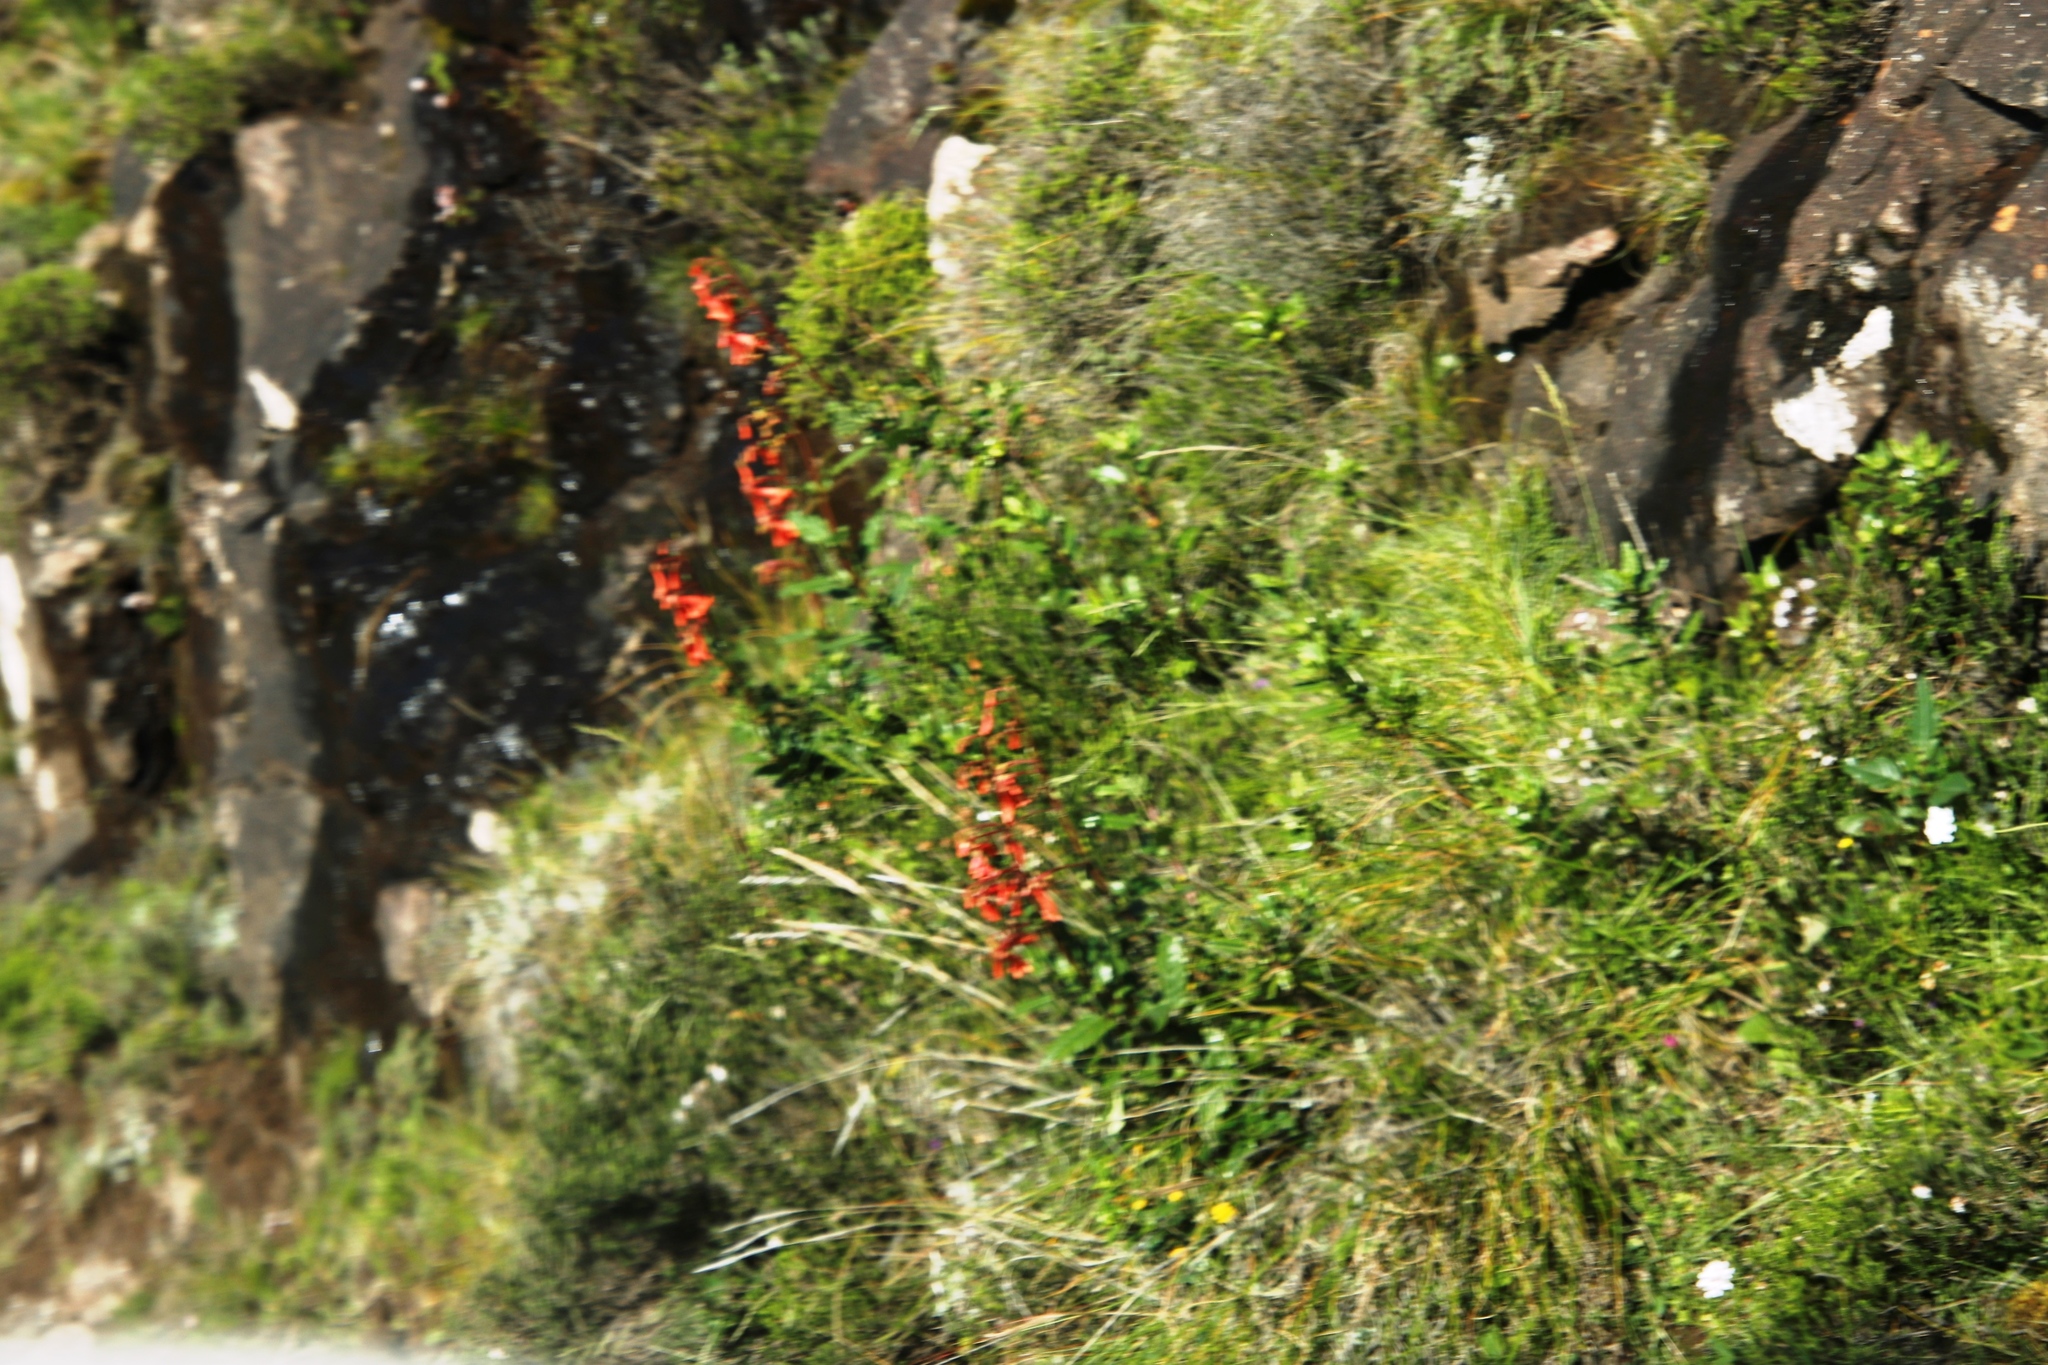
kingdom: Plantae
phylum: Tracheophyta
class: Magnoliopsida
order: Lamiales
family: Scrophulariaceae
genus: Phygelius
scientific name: Phygelius capensis
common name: Cape figwort
